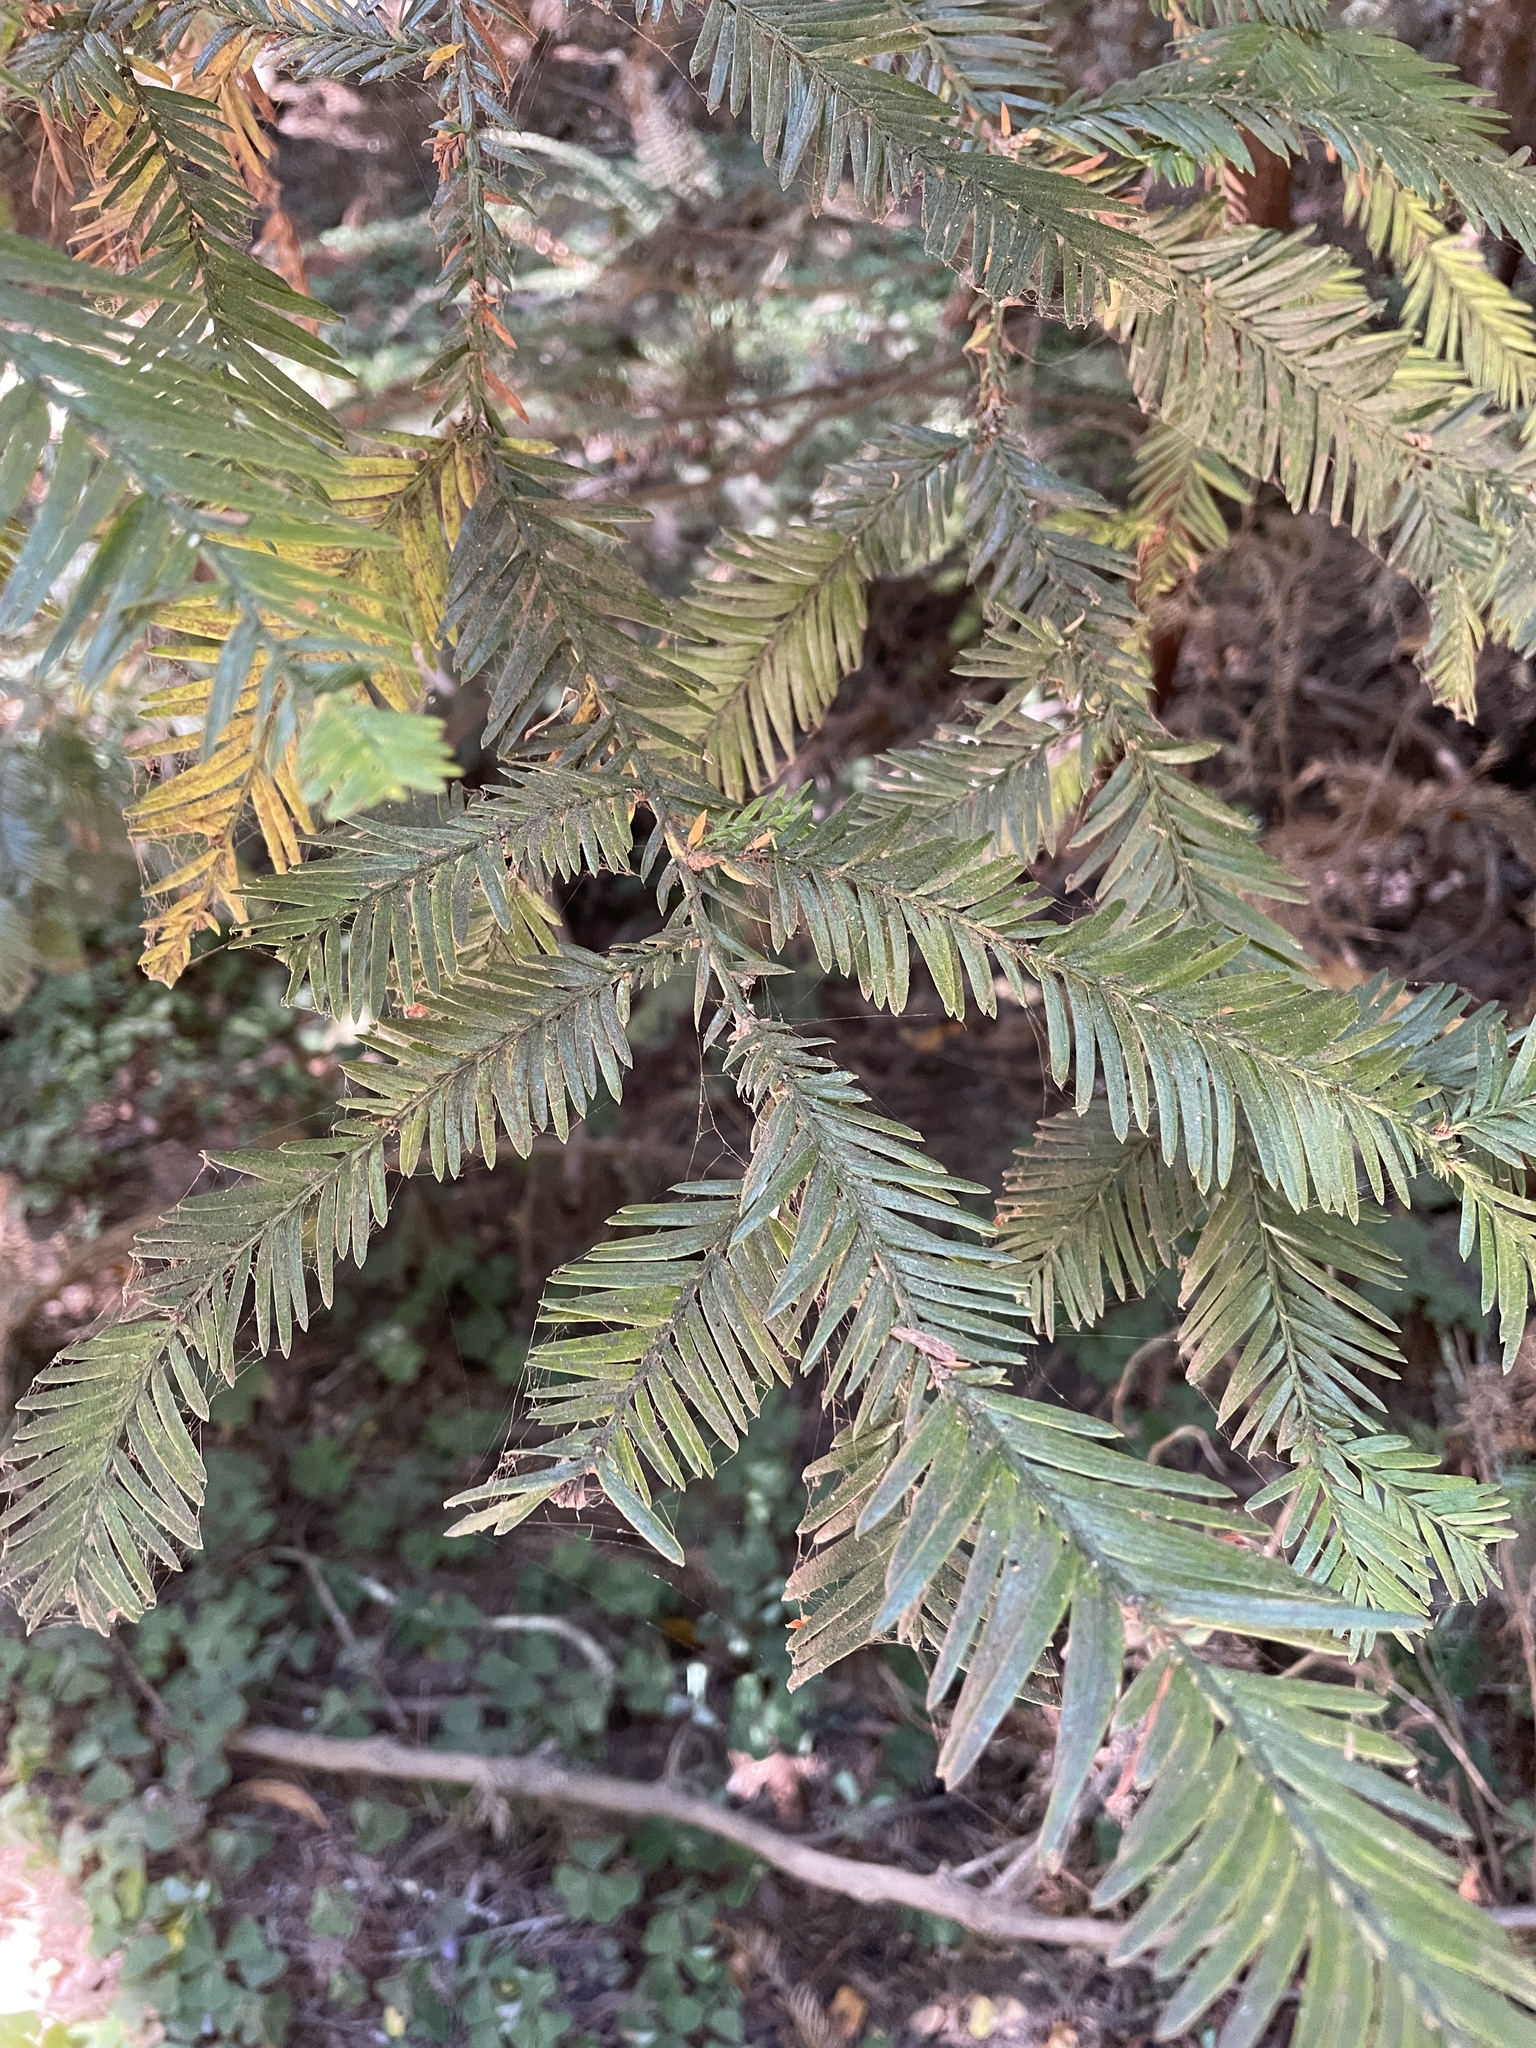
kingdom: Plantae
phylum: Tracheophyta
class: Pinopsida
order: Pinales
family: Cupressaceae
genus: Sequoia
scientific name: Sequoia sempervirens
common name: Coast redwood
